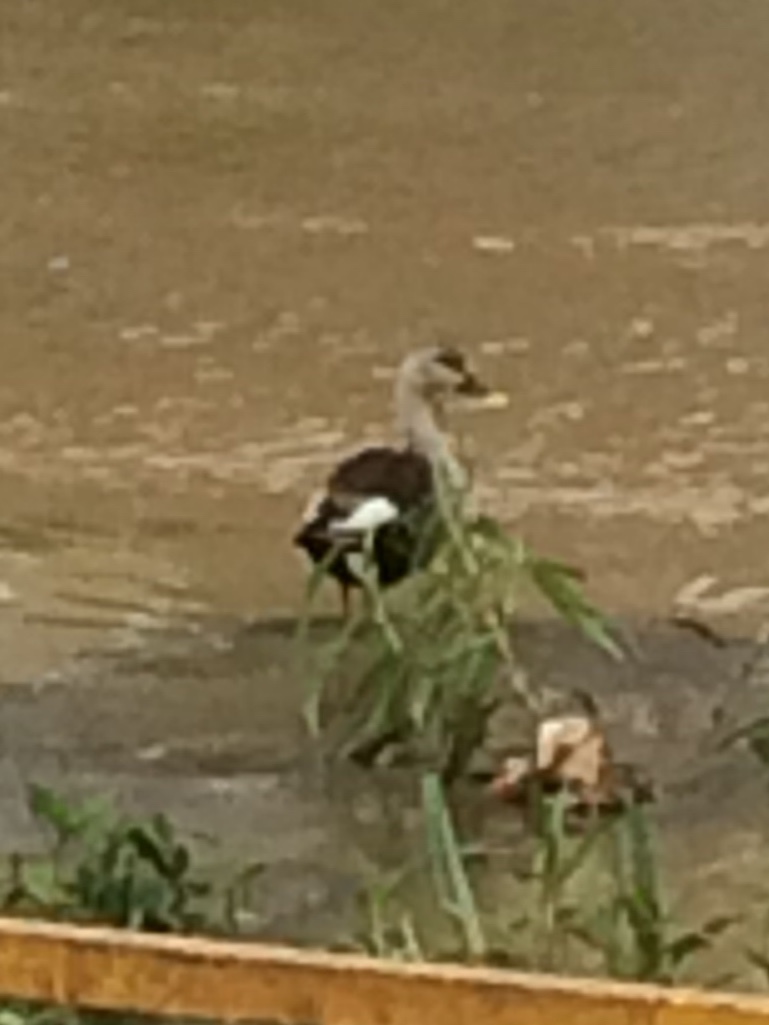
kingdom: Animalia
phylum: Chordata
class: Aves
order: Anseriformes
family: Anatidae
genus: Anas
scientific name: Anas poecilorhyncha
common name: Indian spot-billed duck
